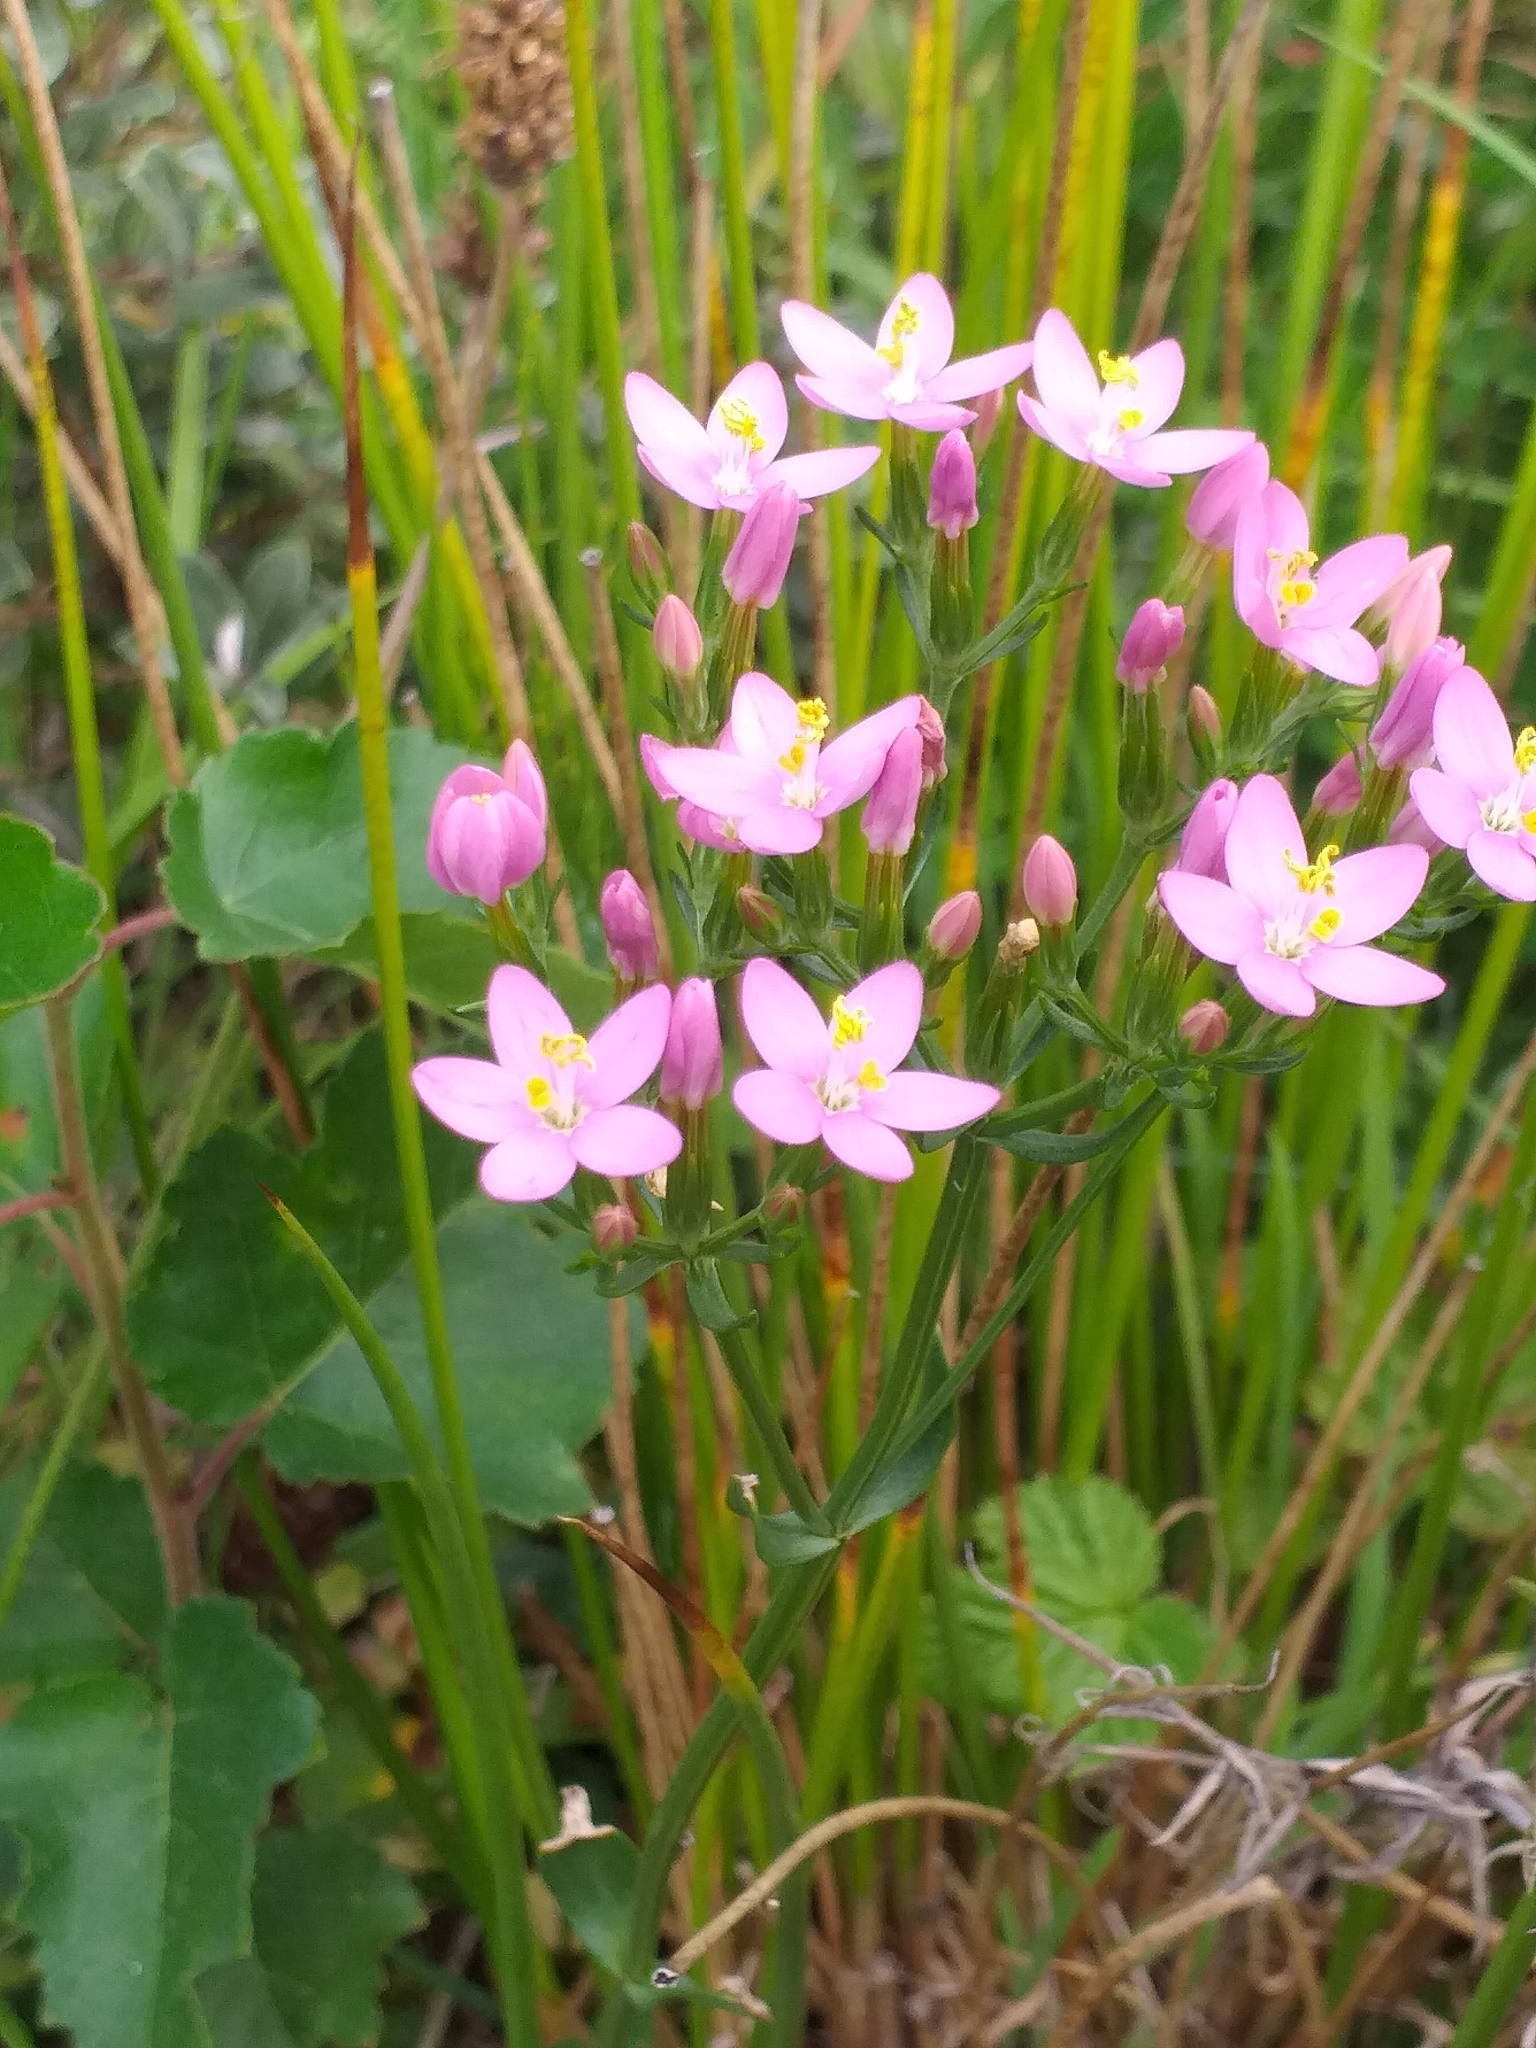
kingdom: Plantae
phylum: Tracheophyta
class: Magnoliopsida
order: Gentianales
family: Gentianaceae
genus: Centaurium
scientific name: Centaurium erythraea
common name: Common centaury
